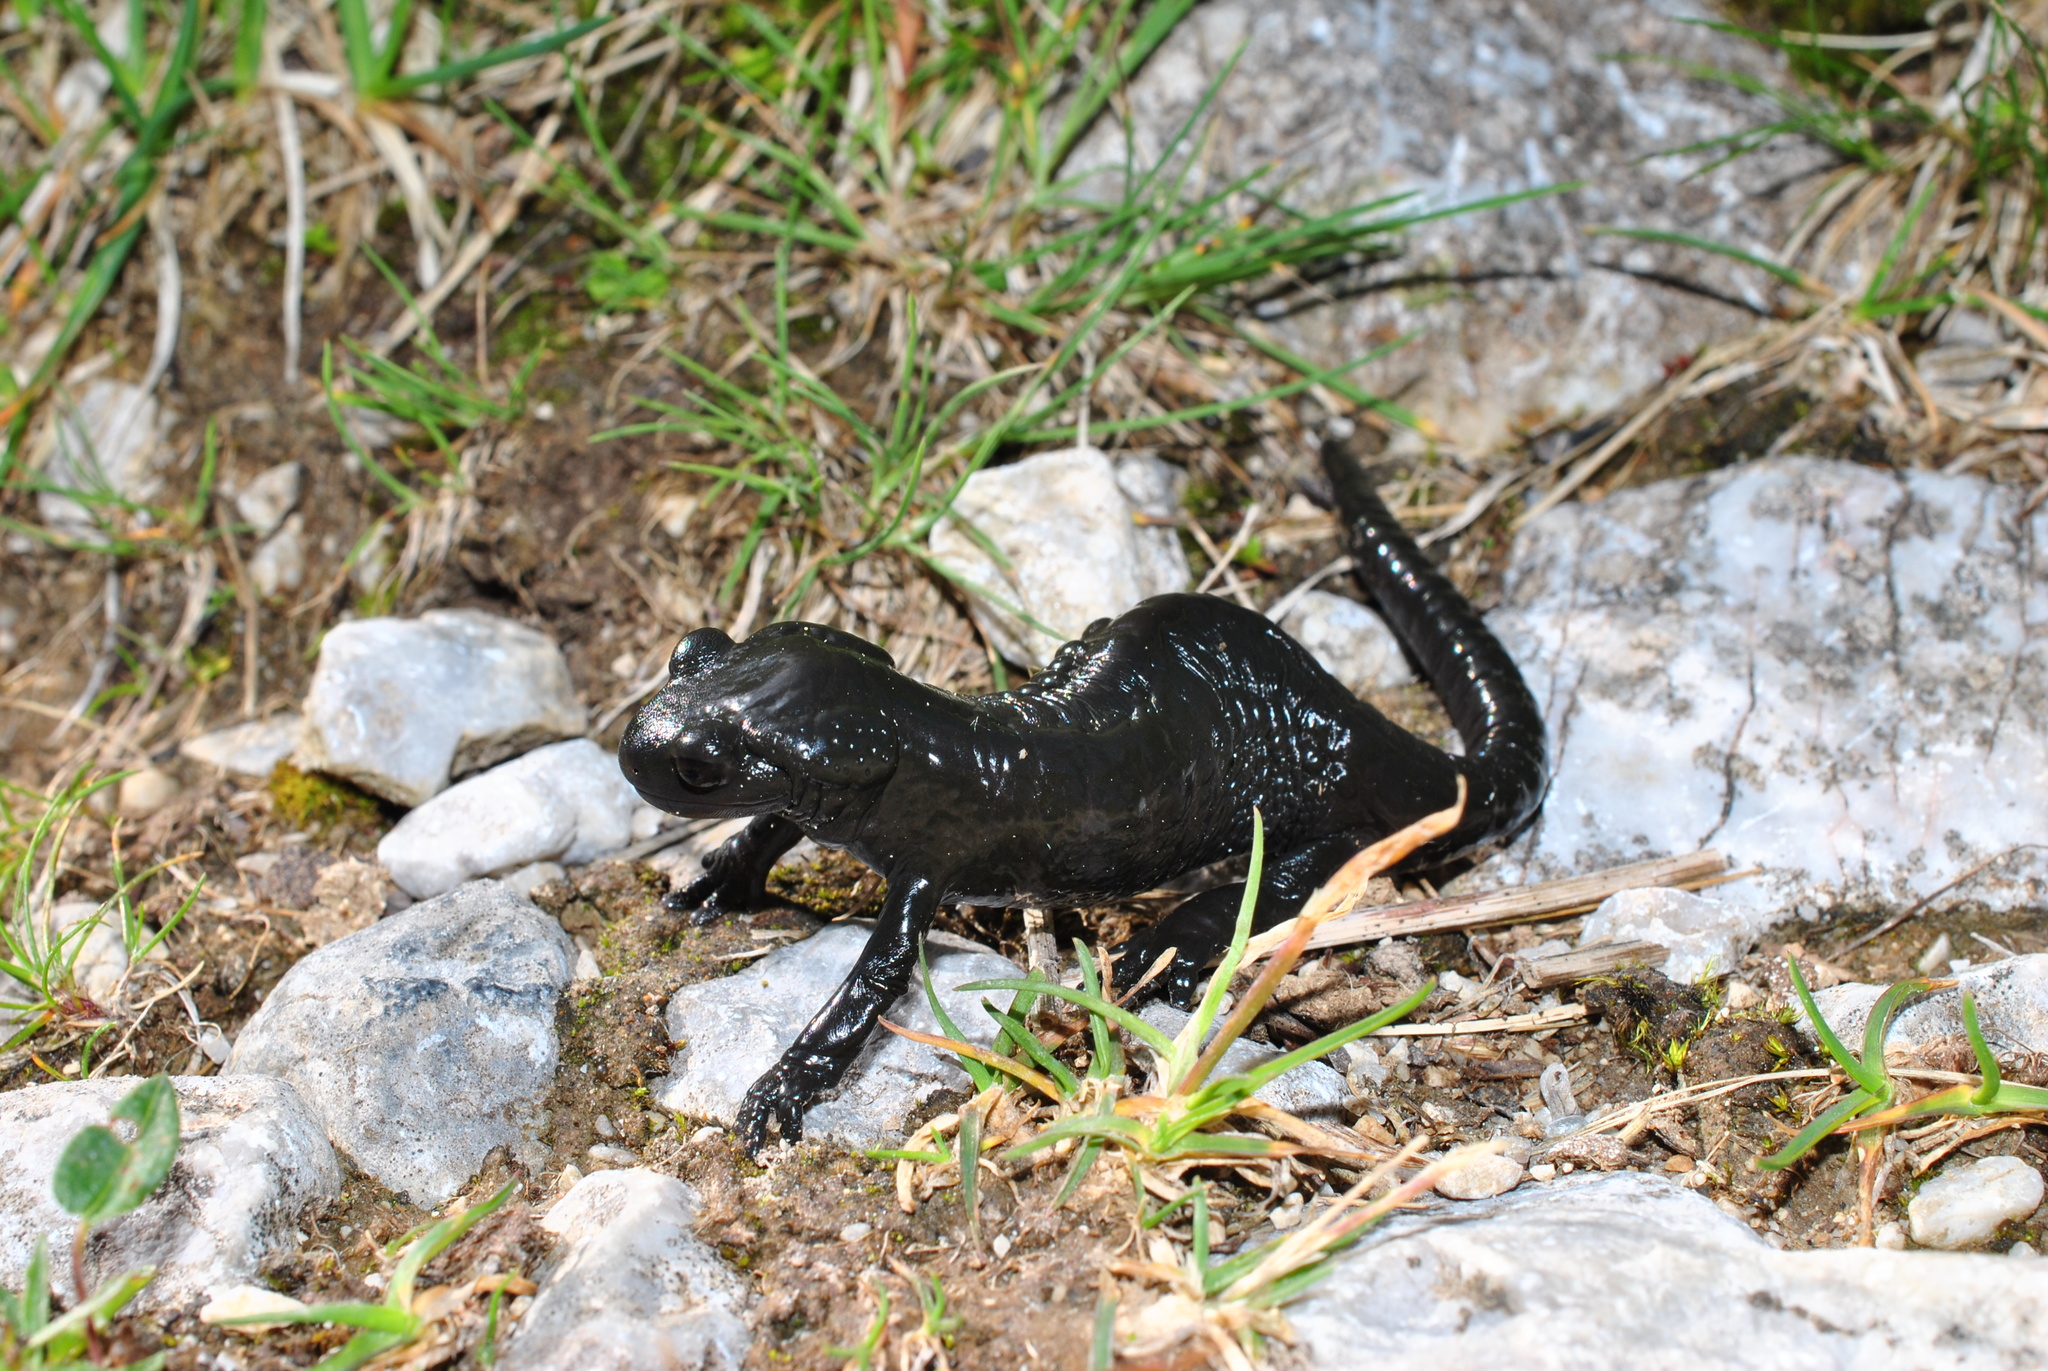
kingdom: Animalia
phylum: Chordata
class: Amphibia
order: Caudata
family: Salamandridae
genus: Salamandra
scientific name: Salamandra atra
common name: Alpine salamander
